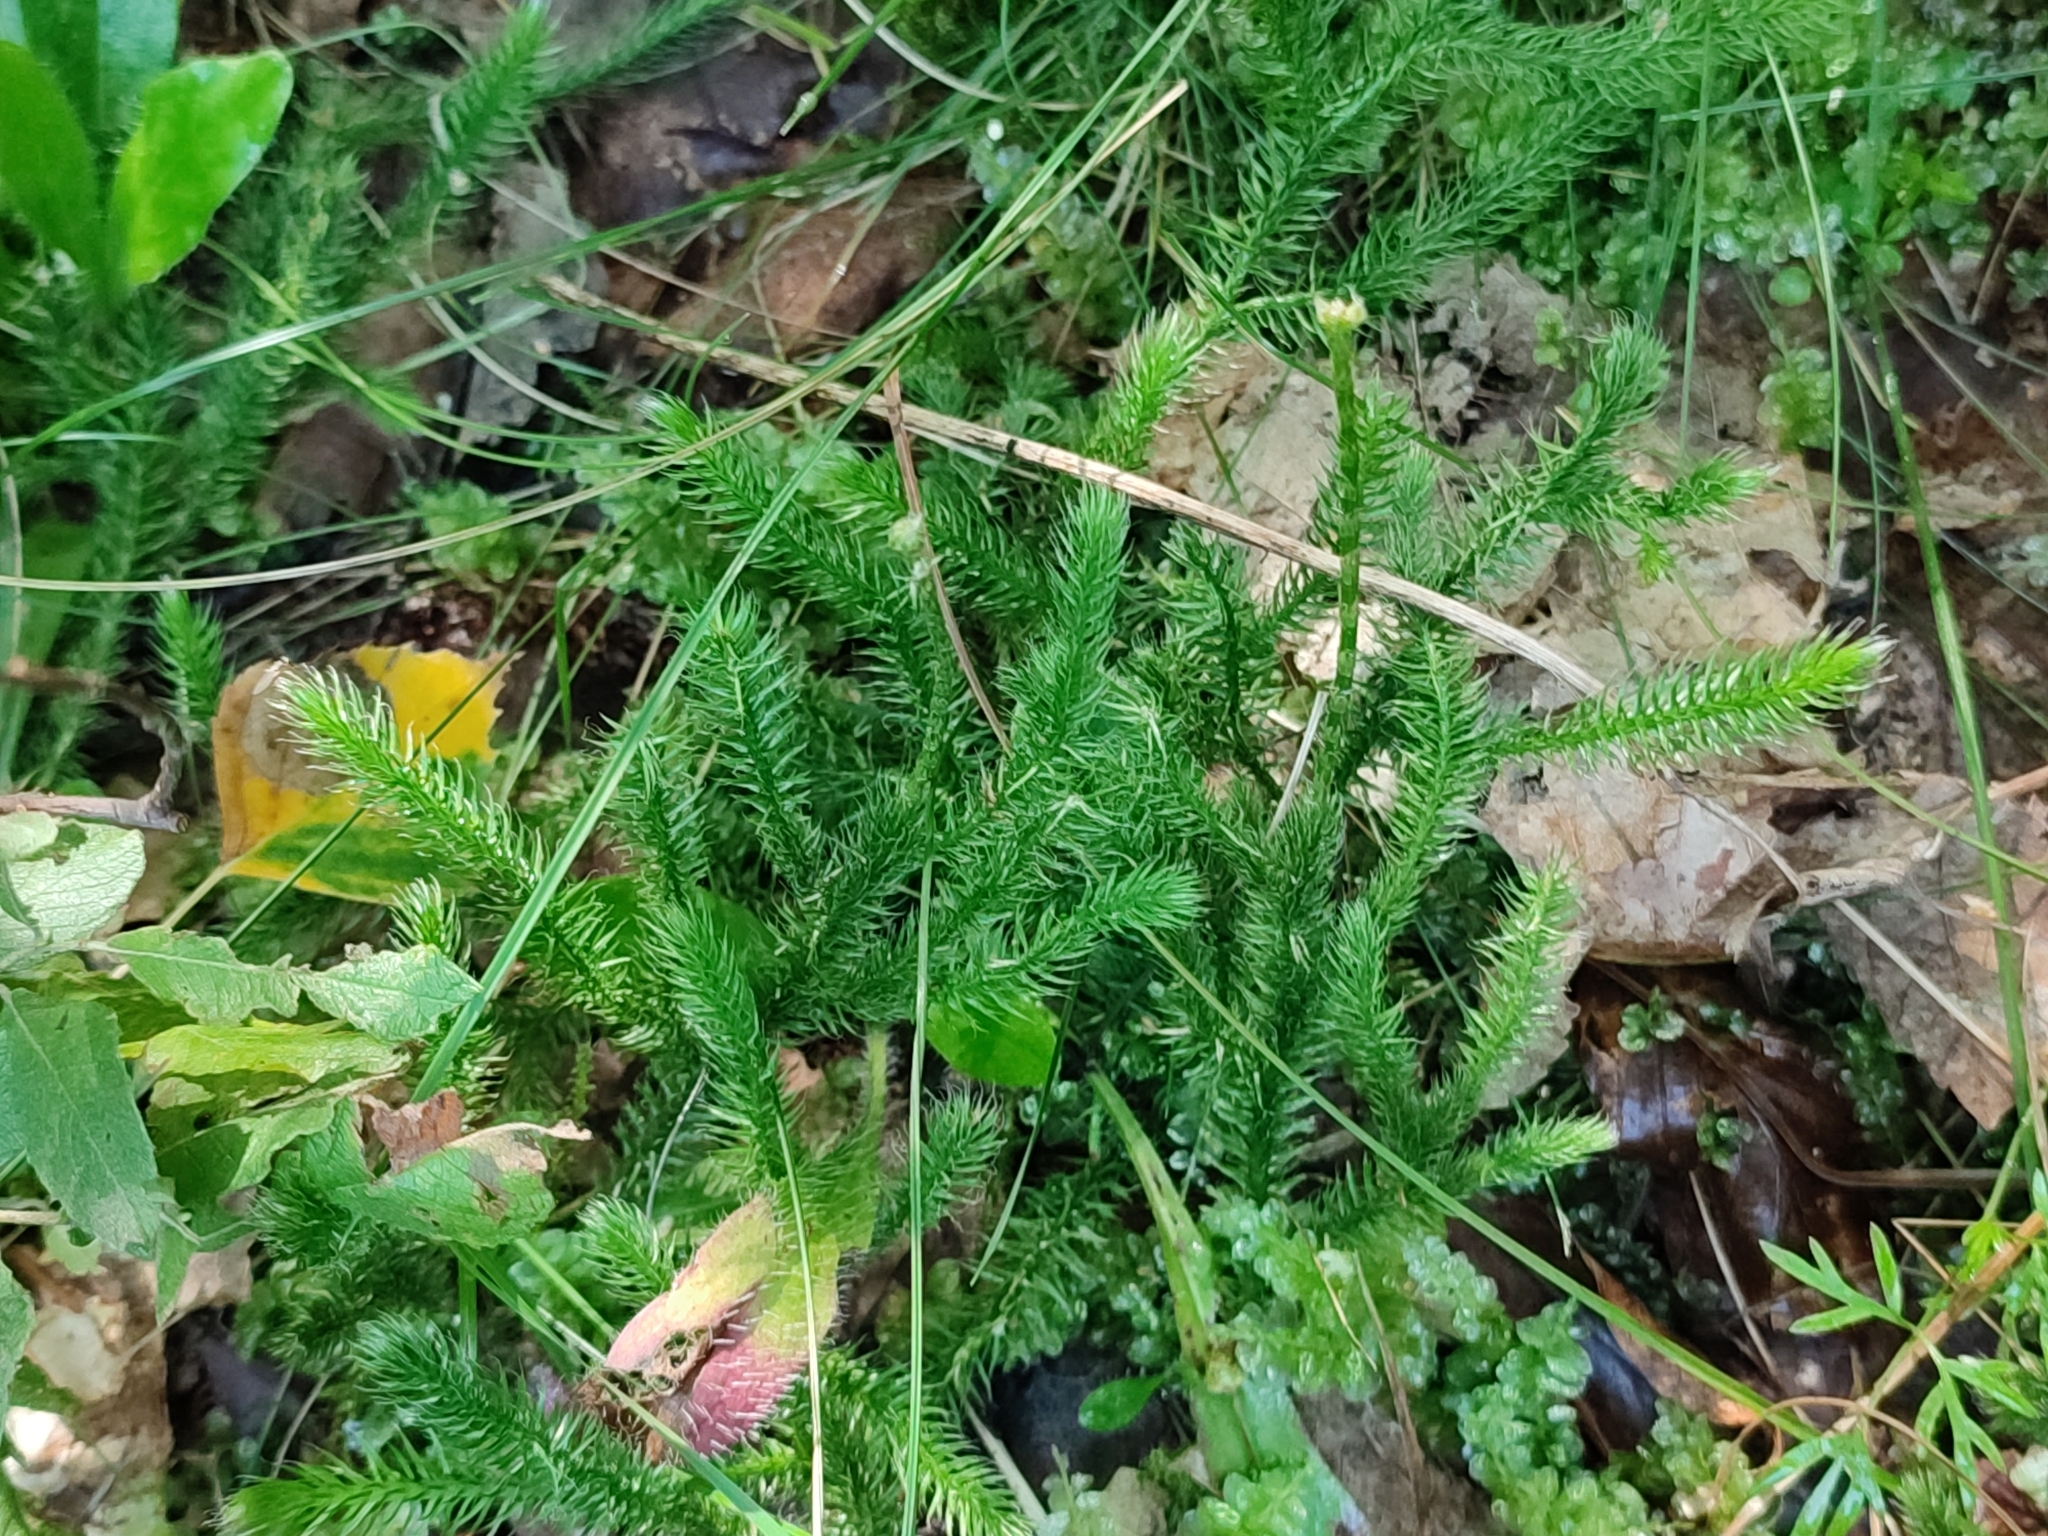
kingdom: Plantae
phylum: Tracheophyta
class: Lycopodiopsida
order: Lycopodiales
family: Lycopodiaceae
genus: Lycopodium
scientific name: Lycopodium clavatum
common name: Stag's-horn clubmoss
